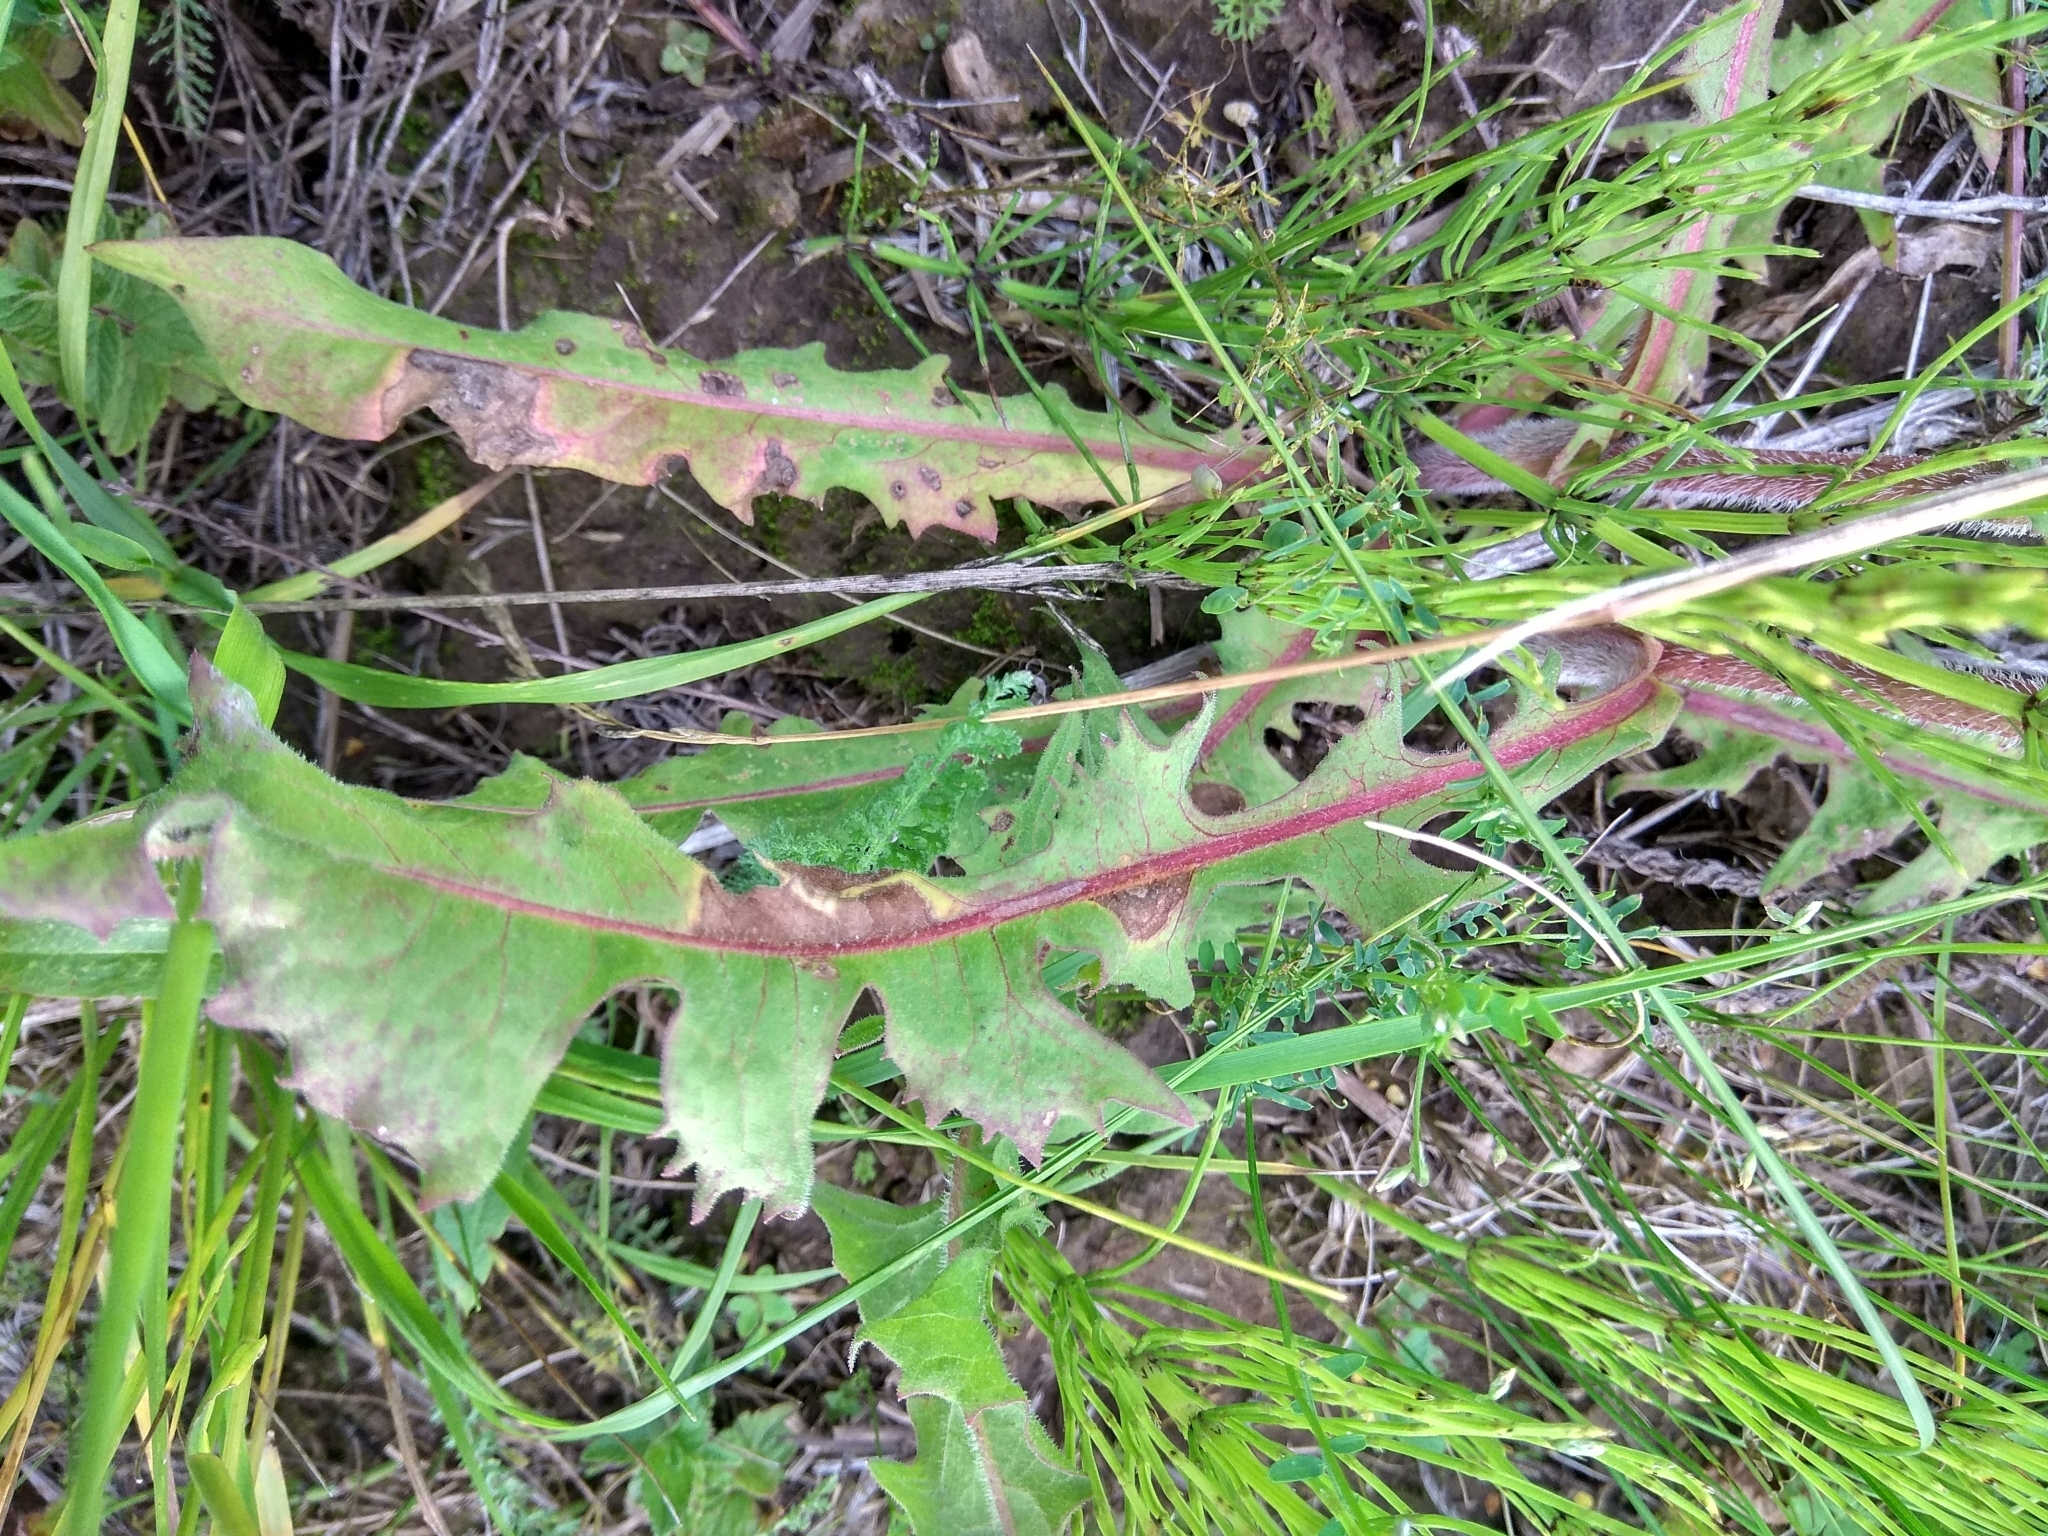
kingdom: Plantae
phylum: Tracheophyta
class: Magnoliopsida
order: Asterales
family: Asteraceae
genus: Cichorium
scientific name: Cichorium intybus
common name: Chicory
